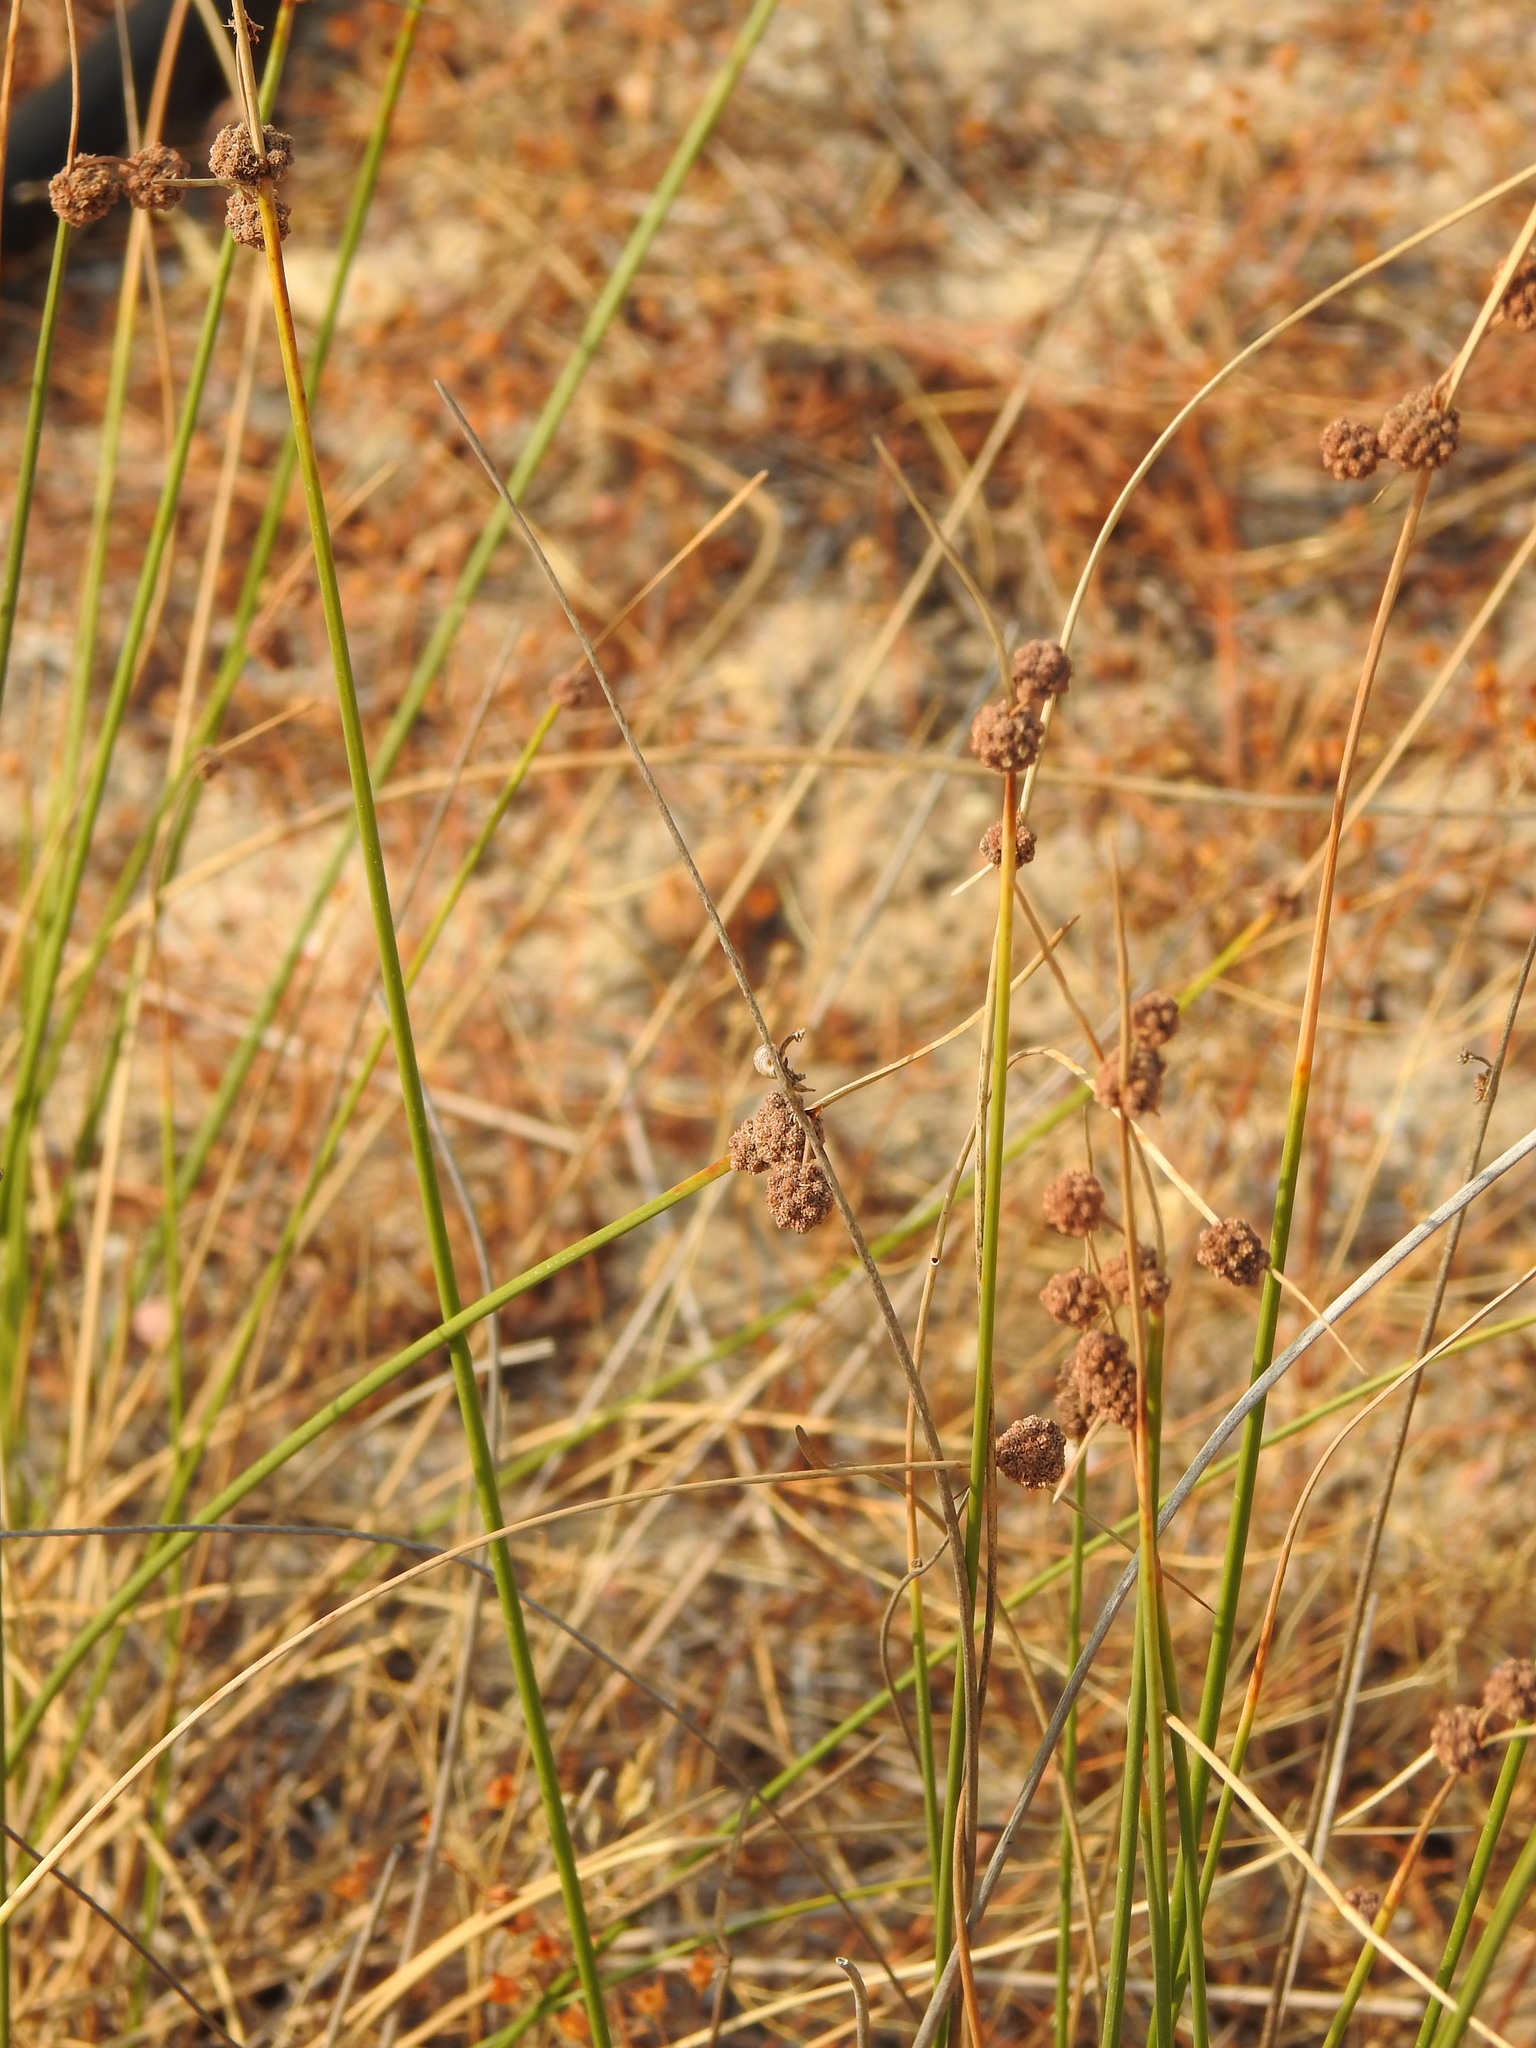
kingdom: Plantae
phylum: Tracheophyta
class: Liliopsida
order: Poales
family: Cyperaceae
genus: Scirpoides
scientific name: Scirpoides holoschoenus
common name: Round-headed club-rush
